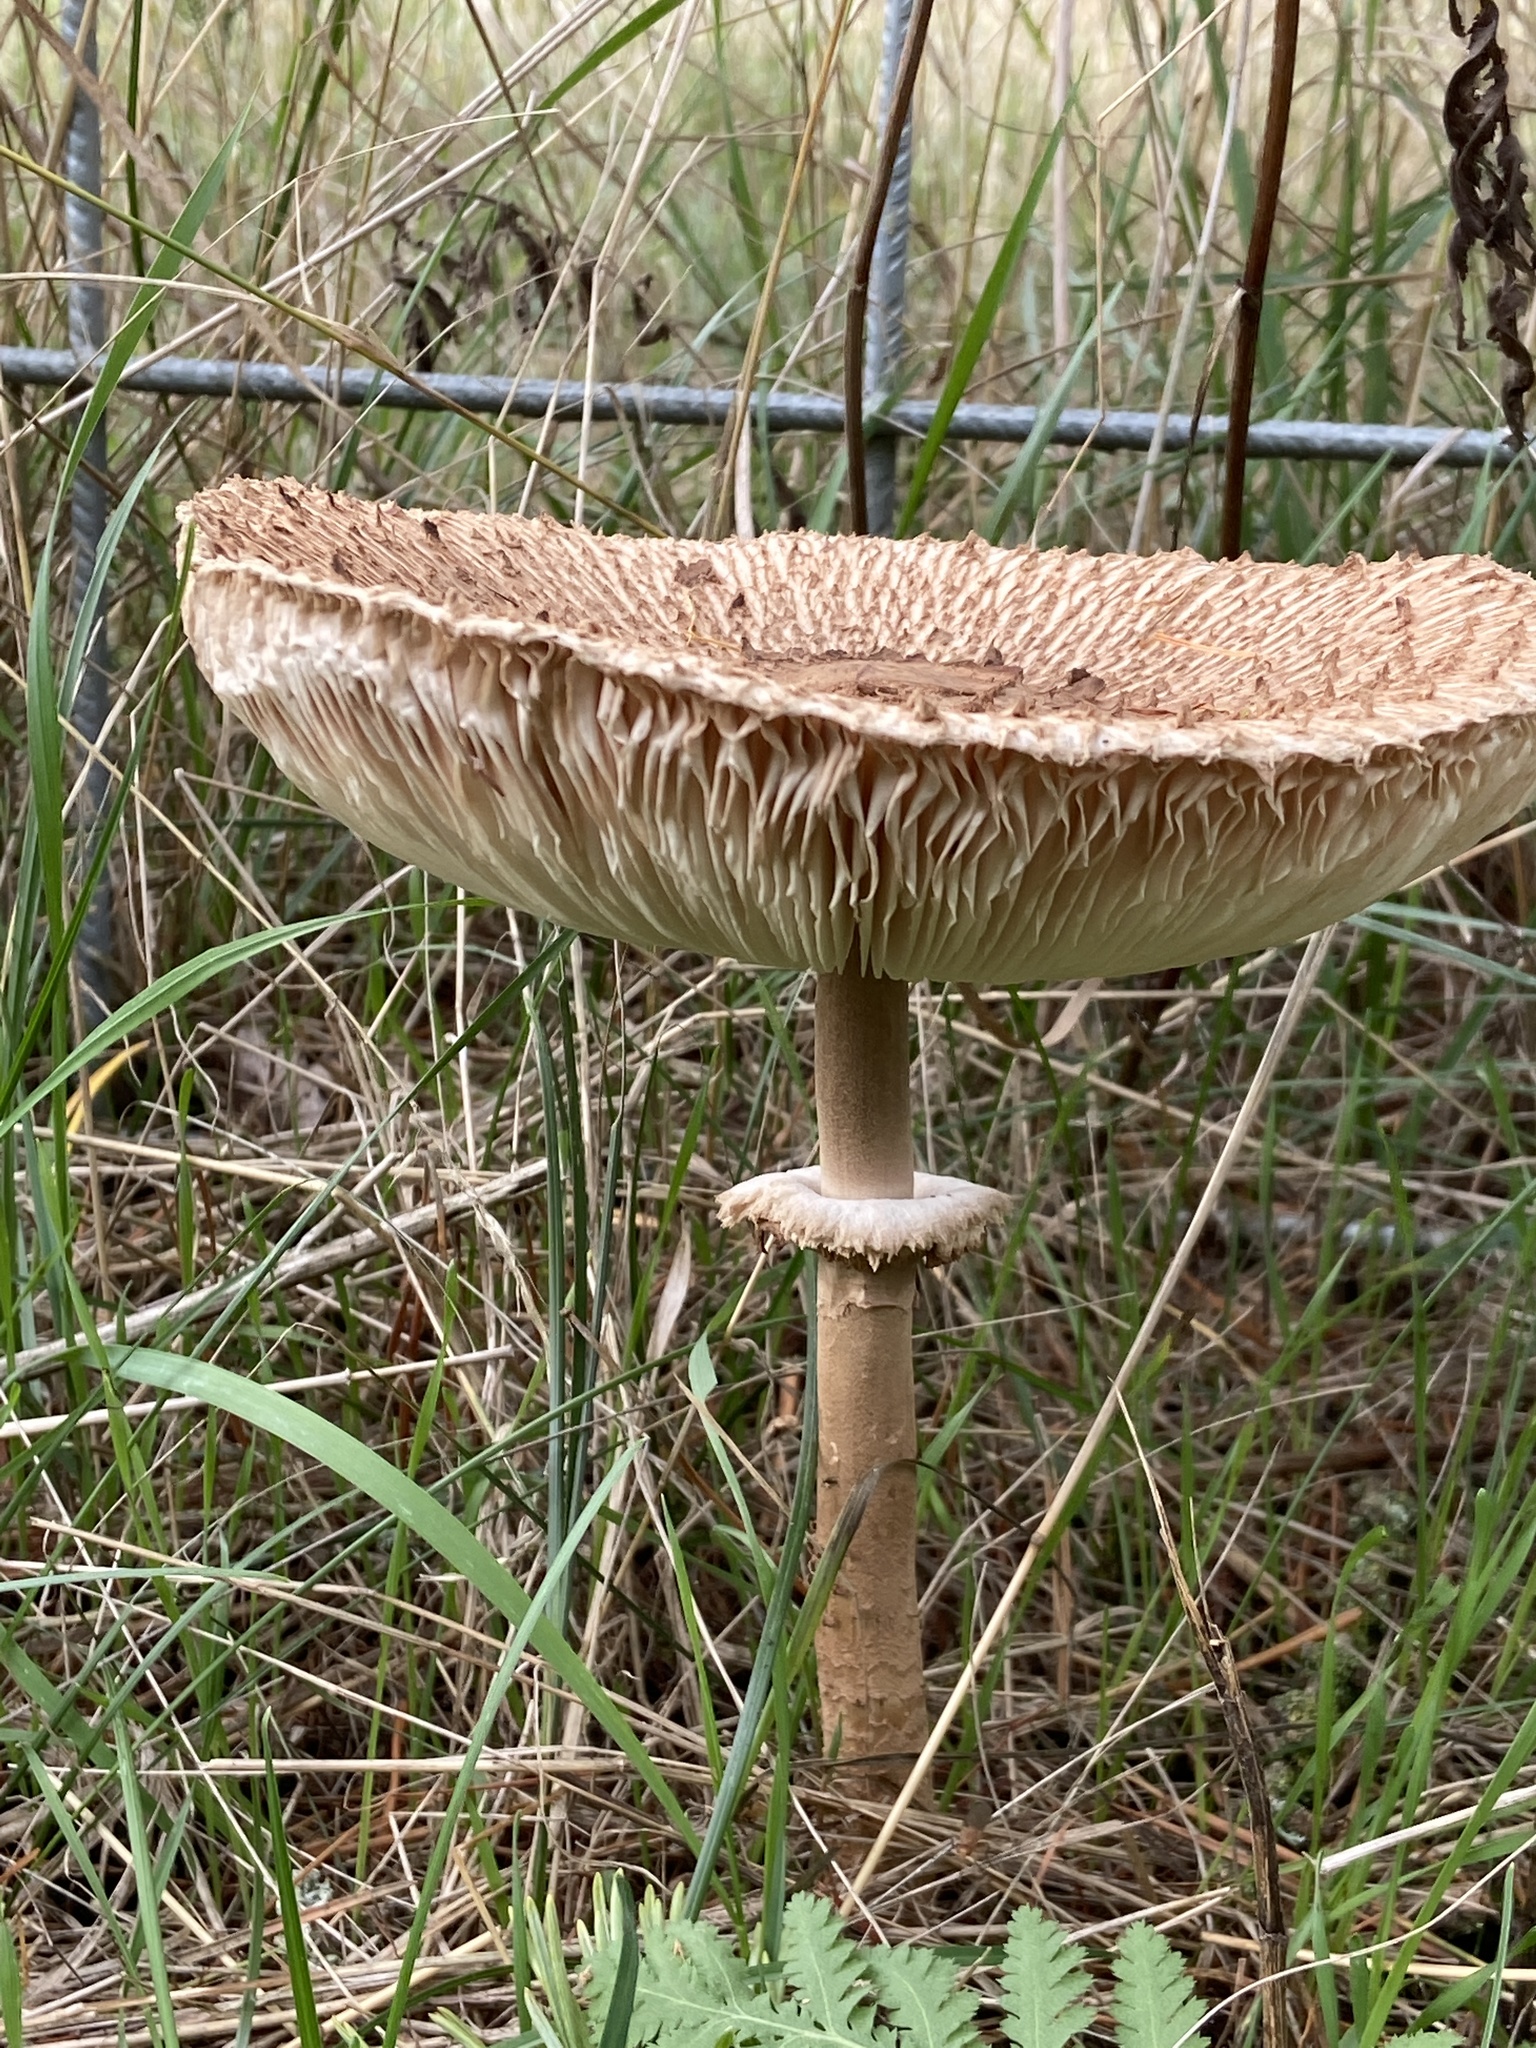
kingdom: Fungi
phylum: Basidiomycota
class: Agaricomycetes
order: Agaricales
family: Agaricaceae
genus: Macrolepiota
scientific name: Macrolepiota procera
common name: Parasol
